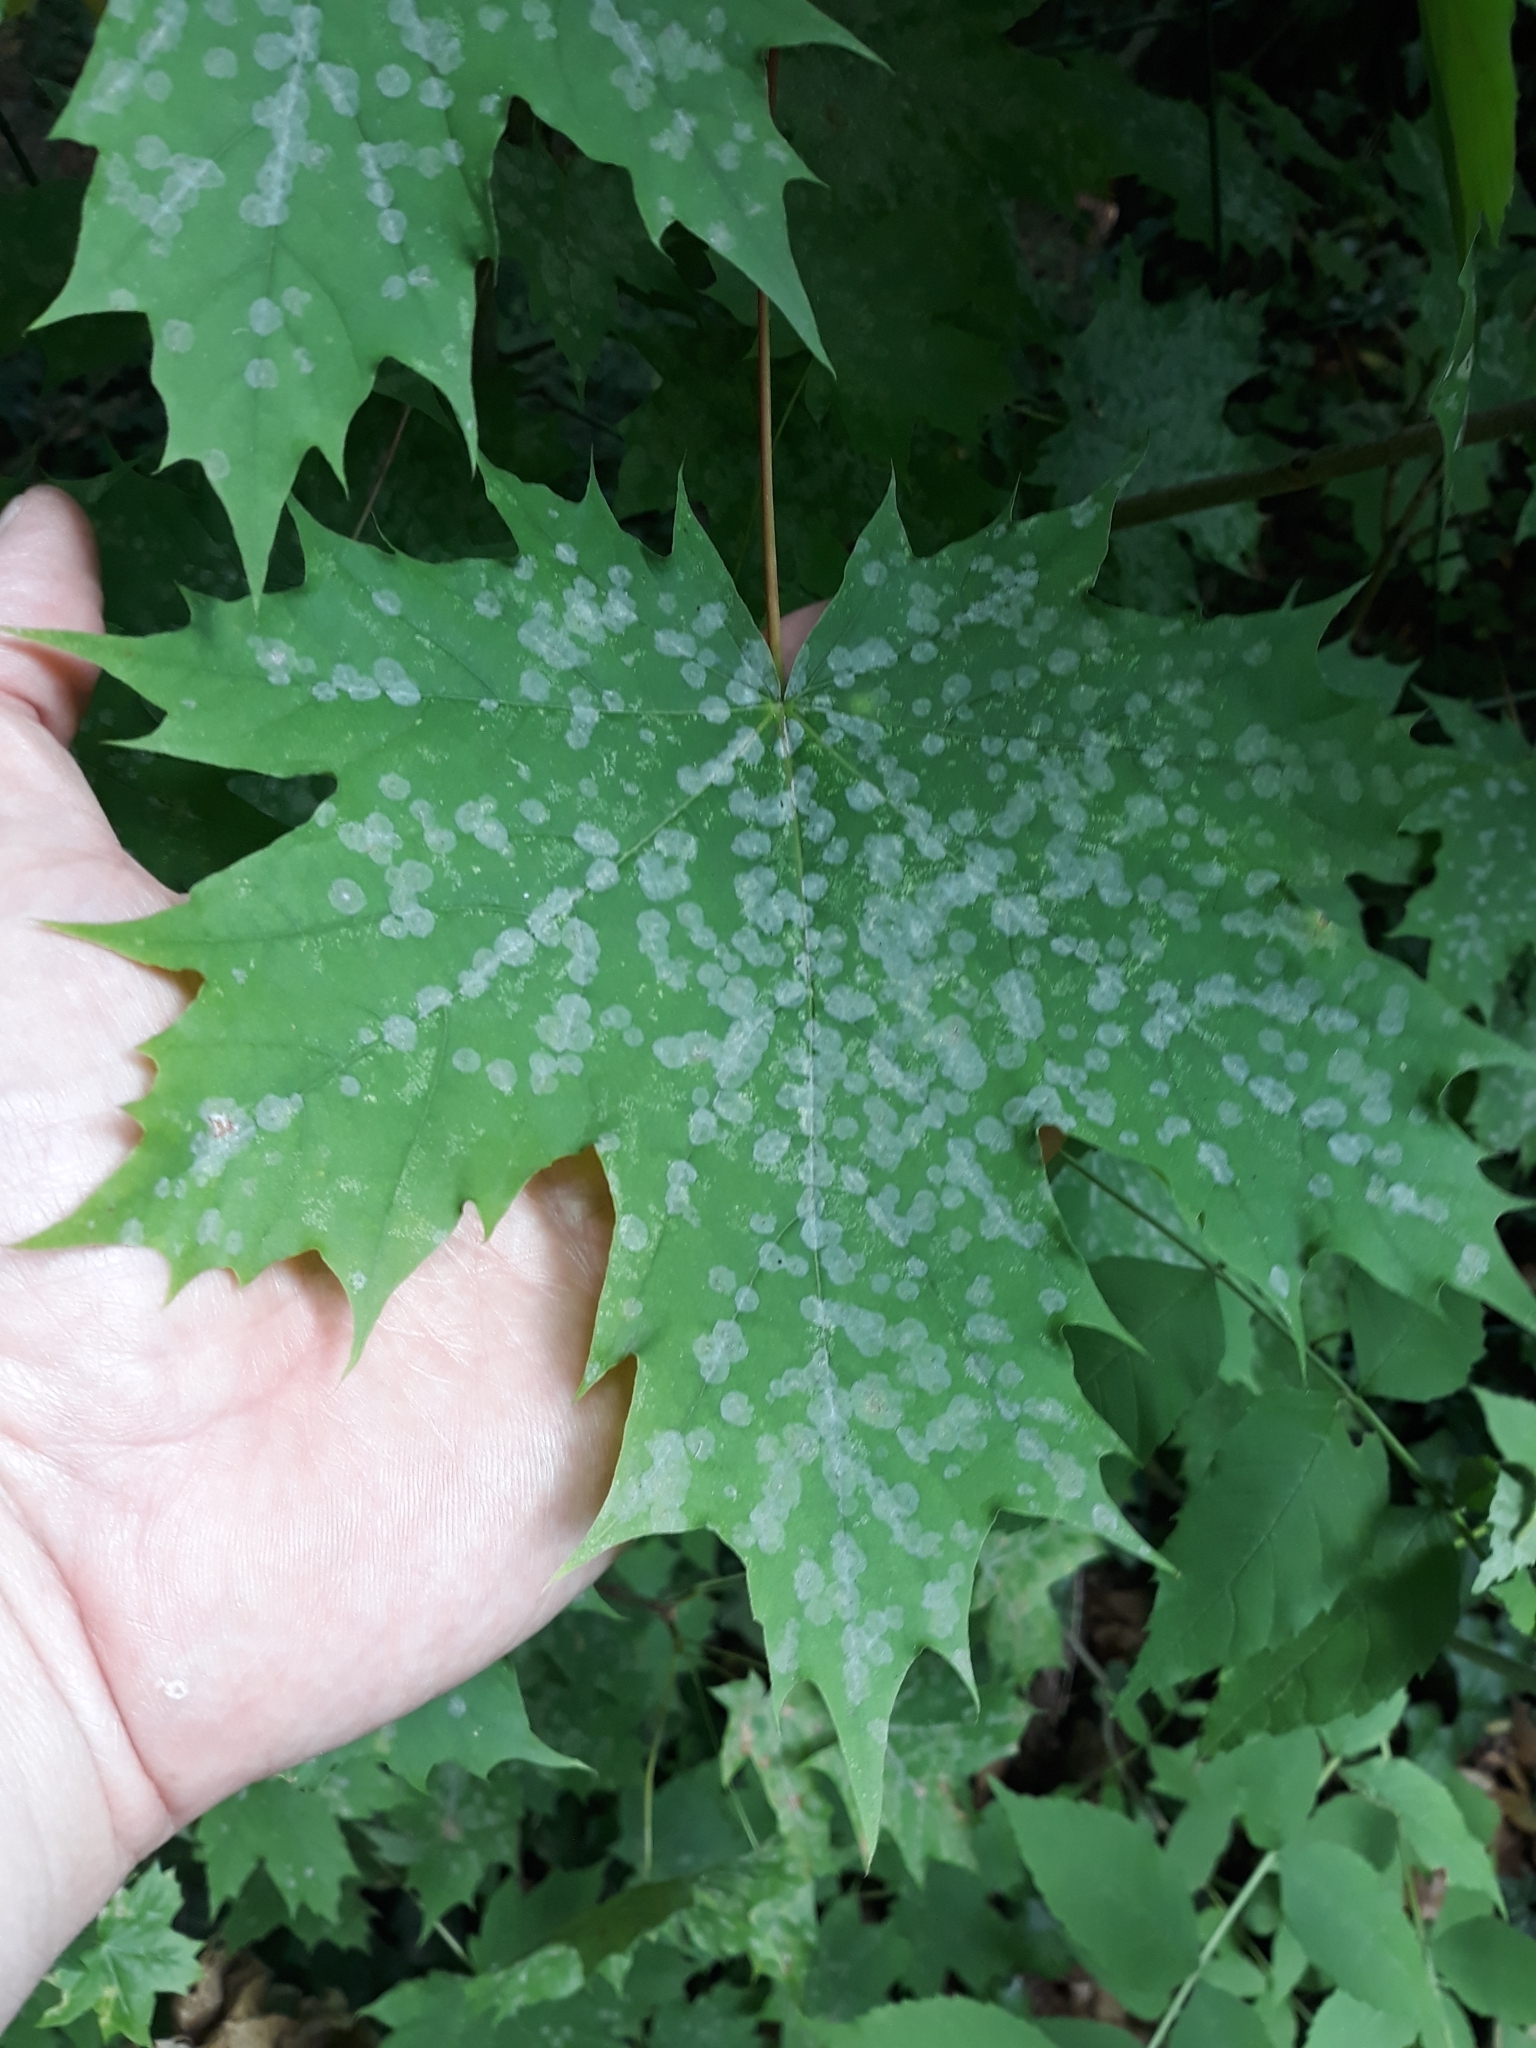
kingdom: Fungi
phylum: Ascomycota
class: Leotiomycetes
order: Helotiales
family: Erysiphaceae
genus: Sawadaea
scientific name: Sawadaea tulasnei
